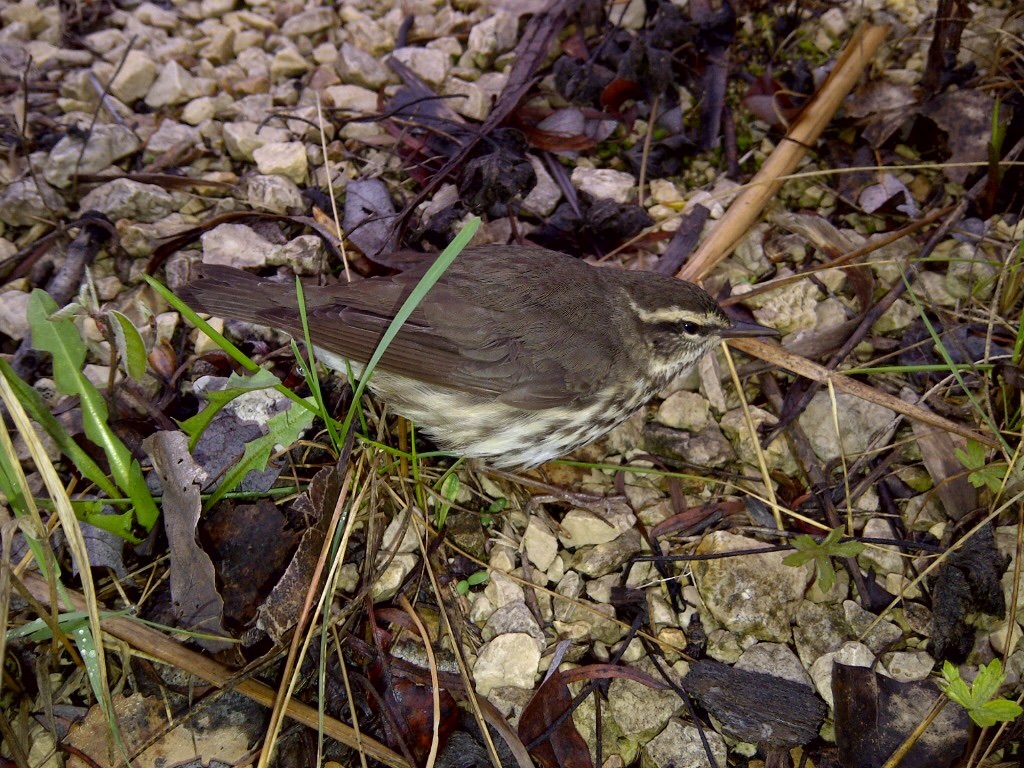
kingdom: Animalia
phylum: Chordata
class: Aves
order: Passeriformes
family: Parulidae
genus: Parkesia
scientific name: Parkesia noveboracensis
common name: Northern waterthrush
